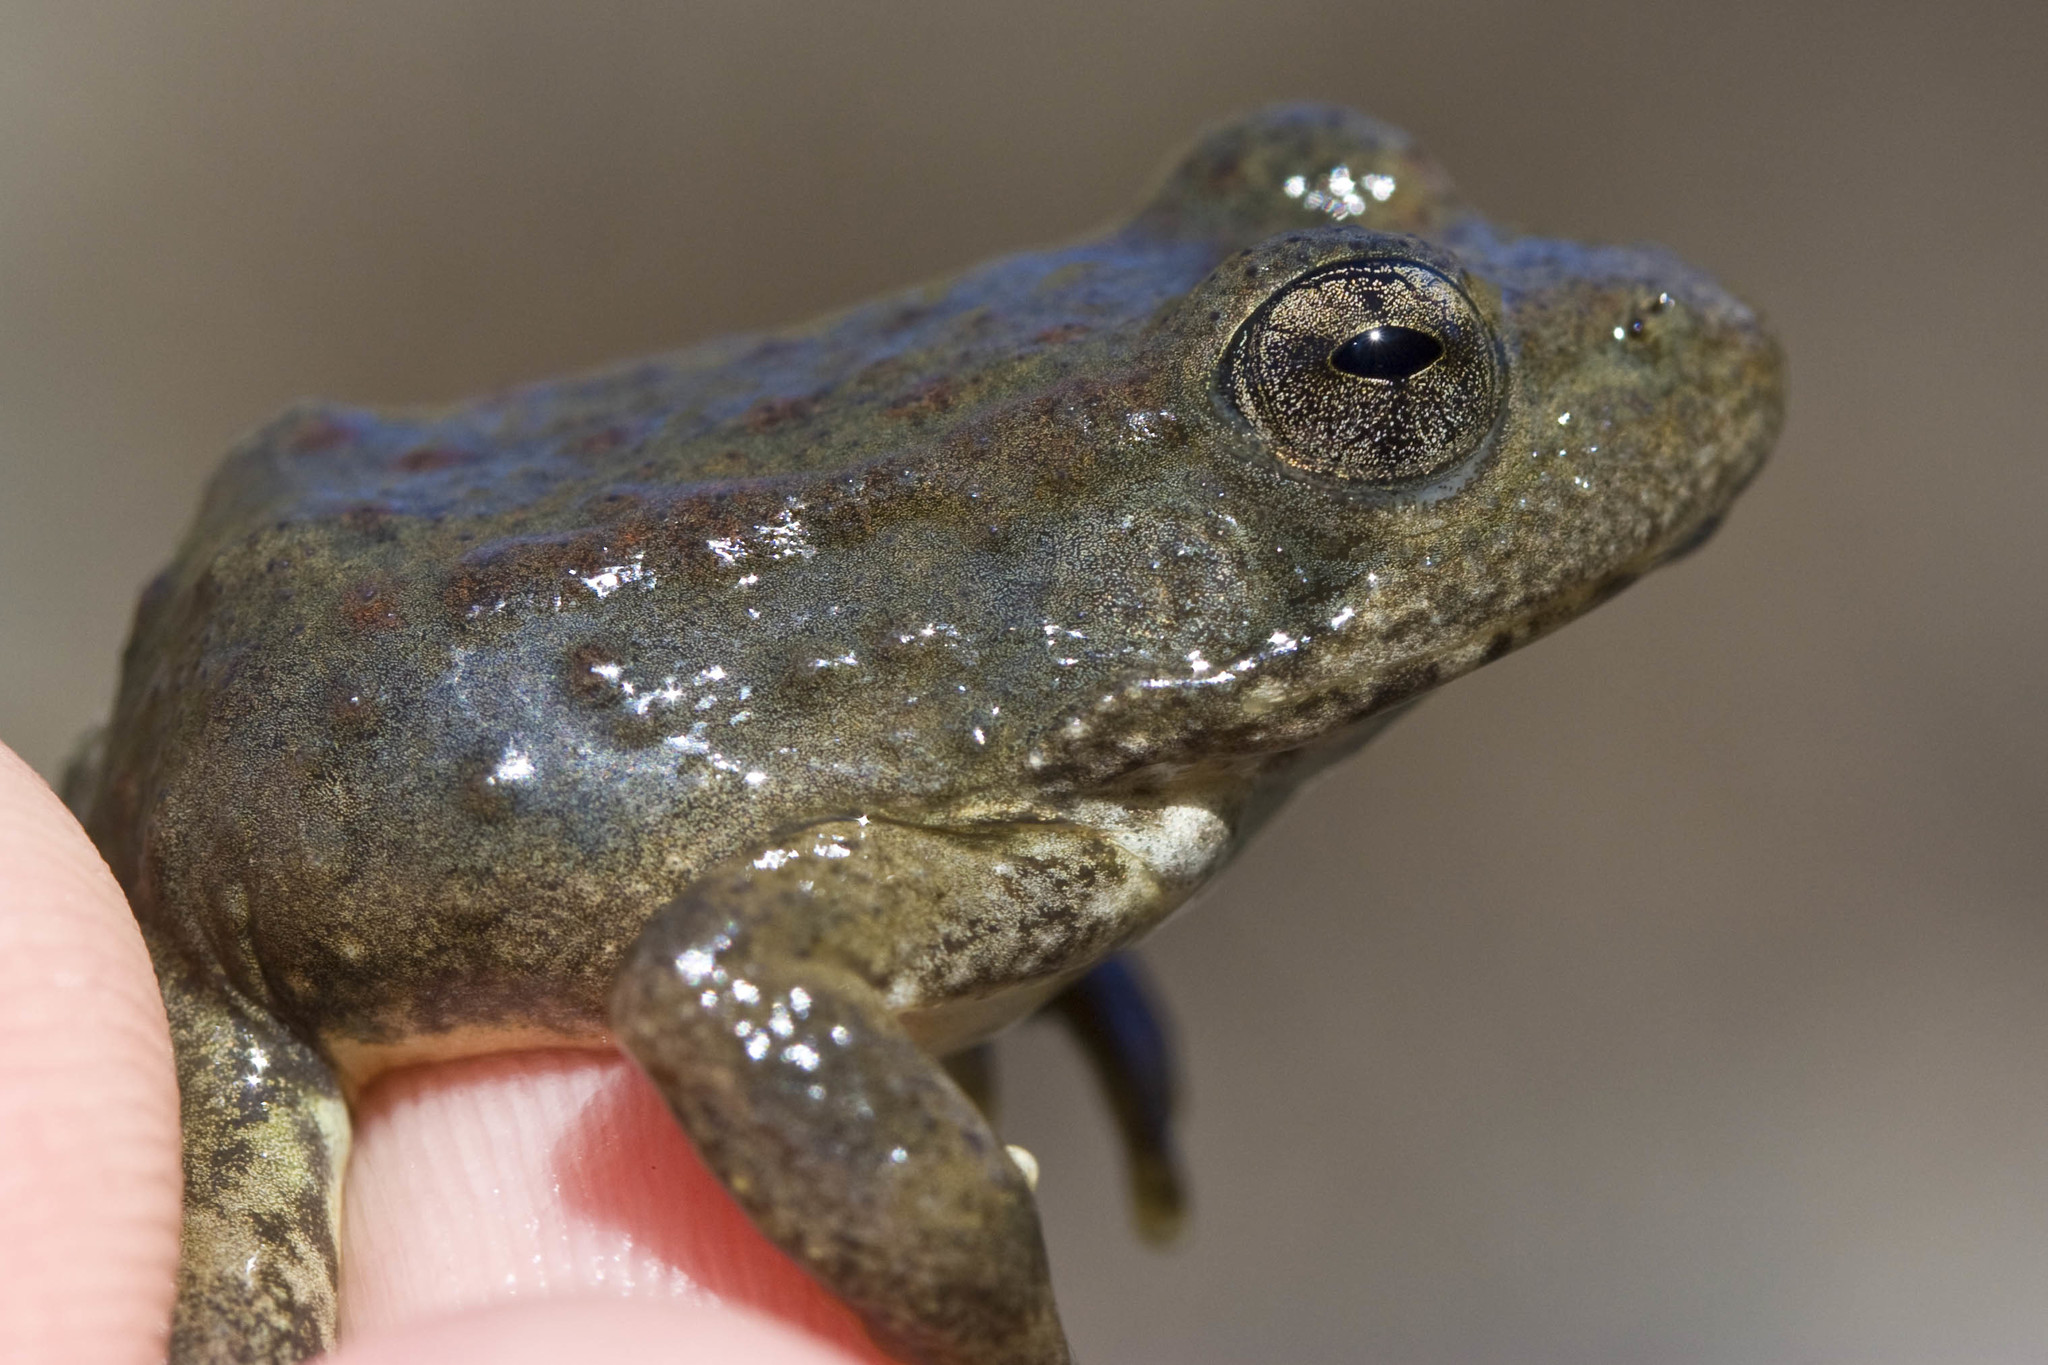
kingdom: Animalia
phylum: Chordata
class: Amphibia
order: Anura
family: Ranidae
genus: Rana
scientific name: Rana boylii
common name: Foothill yellow-legged frog
